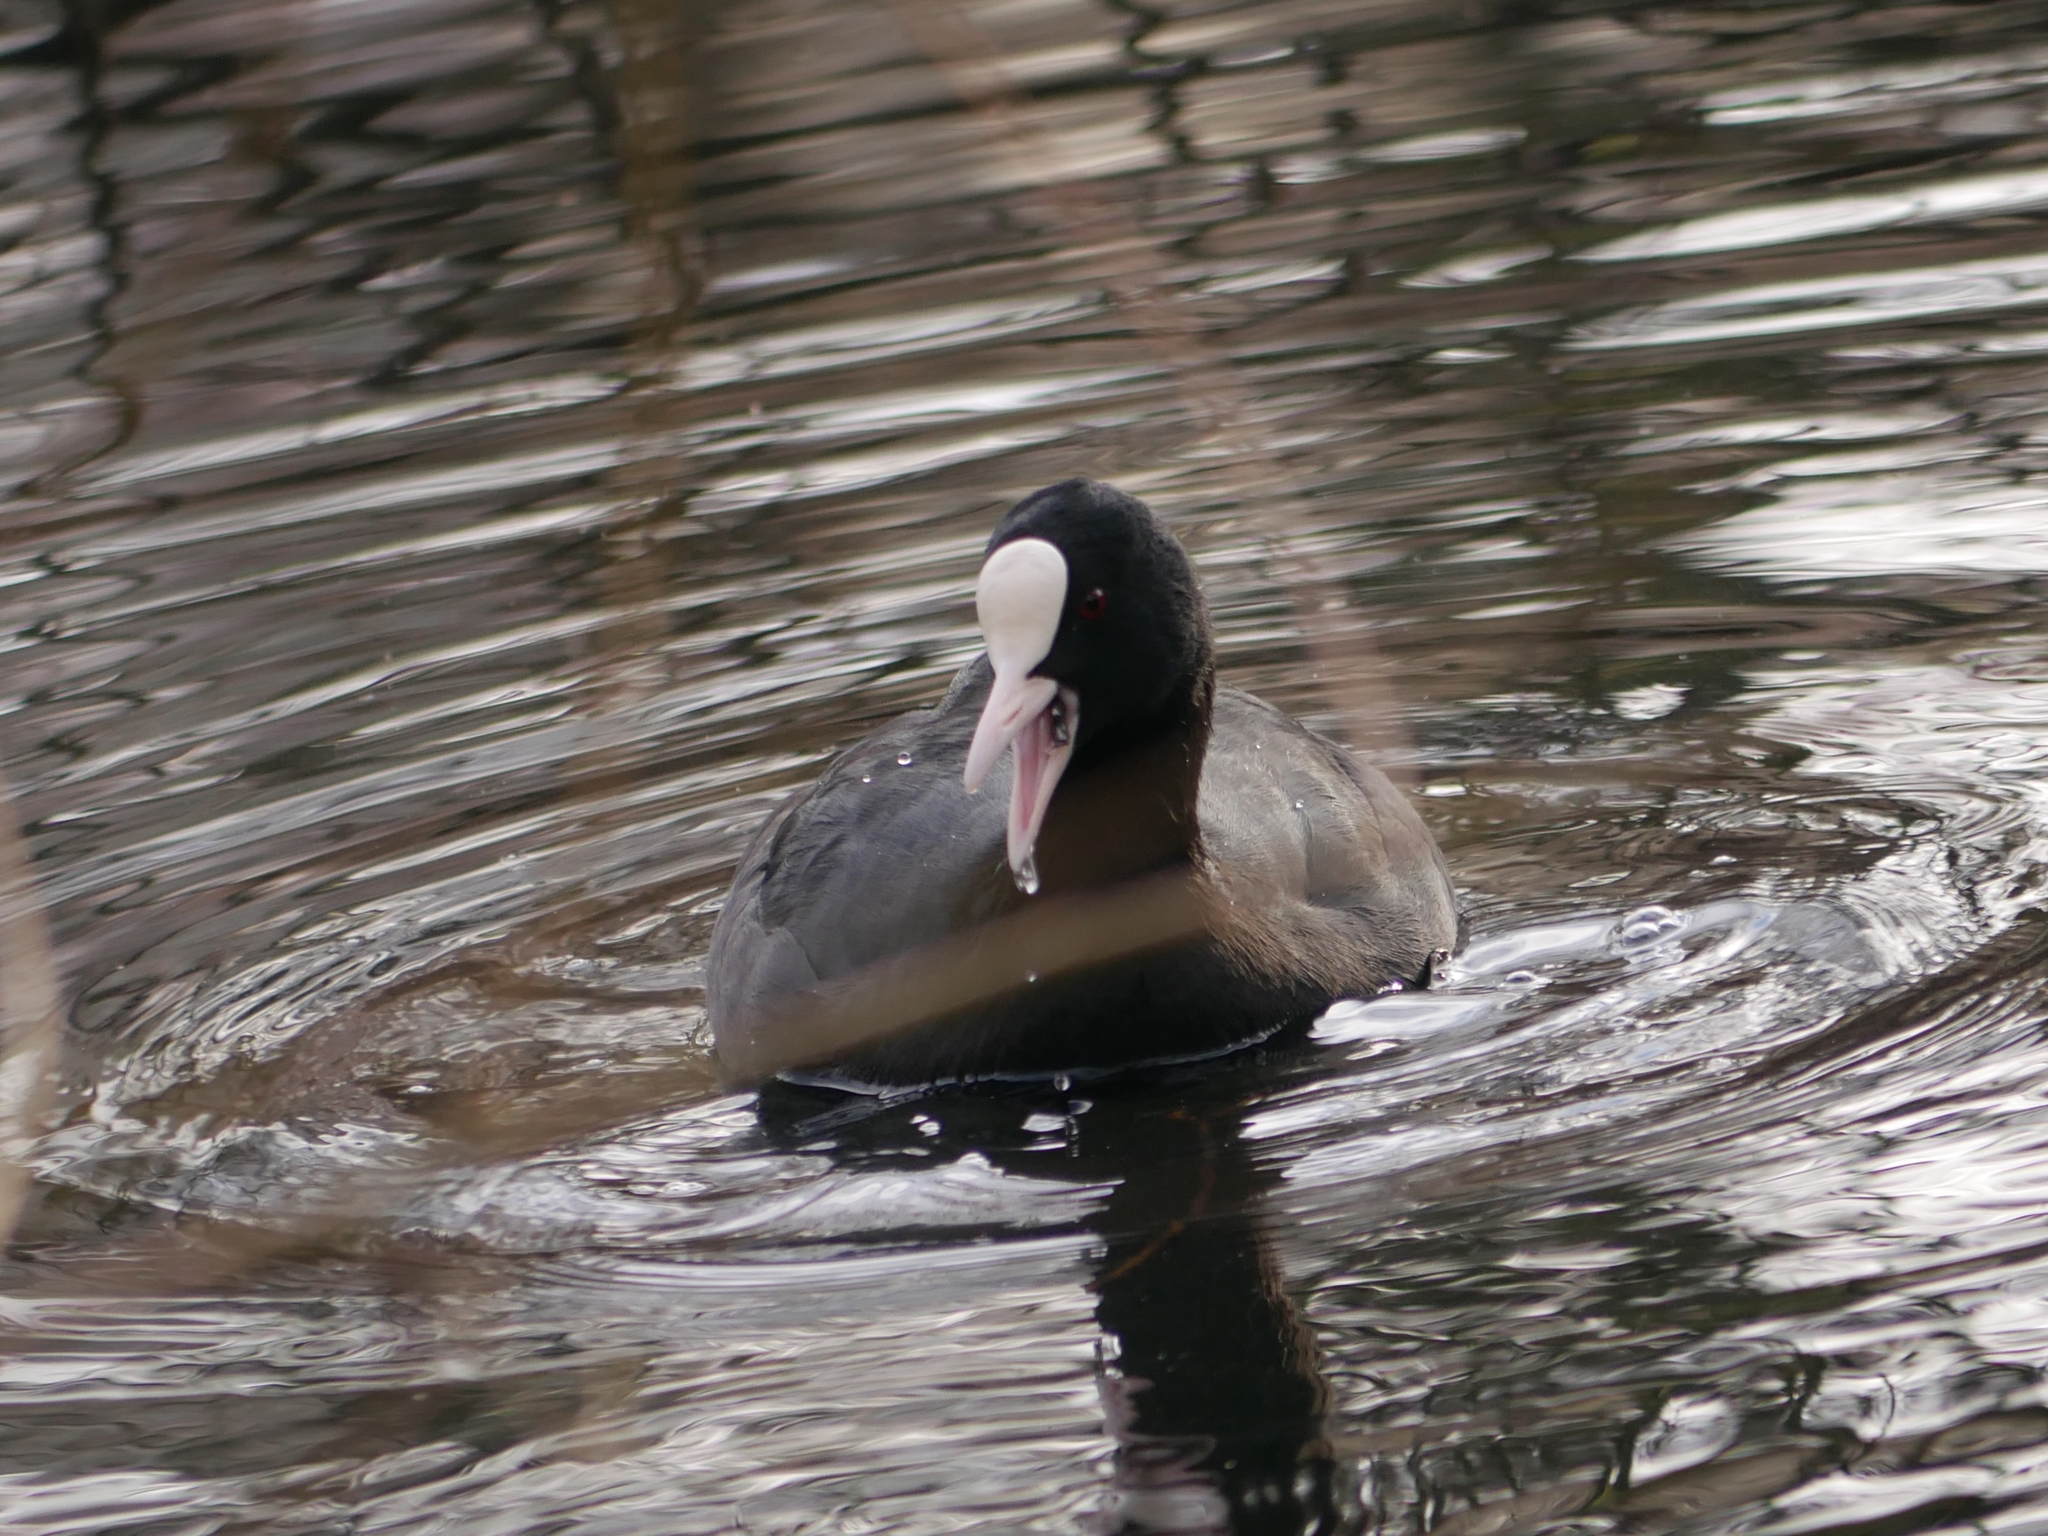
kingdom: Animalia
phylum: Chordata
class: Aves
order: Gruiformes
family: Rallidae
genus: Fulica
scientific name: Fulica atra
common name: Eurasian coot
